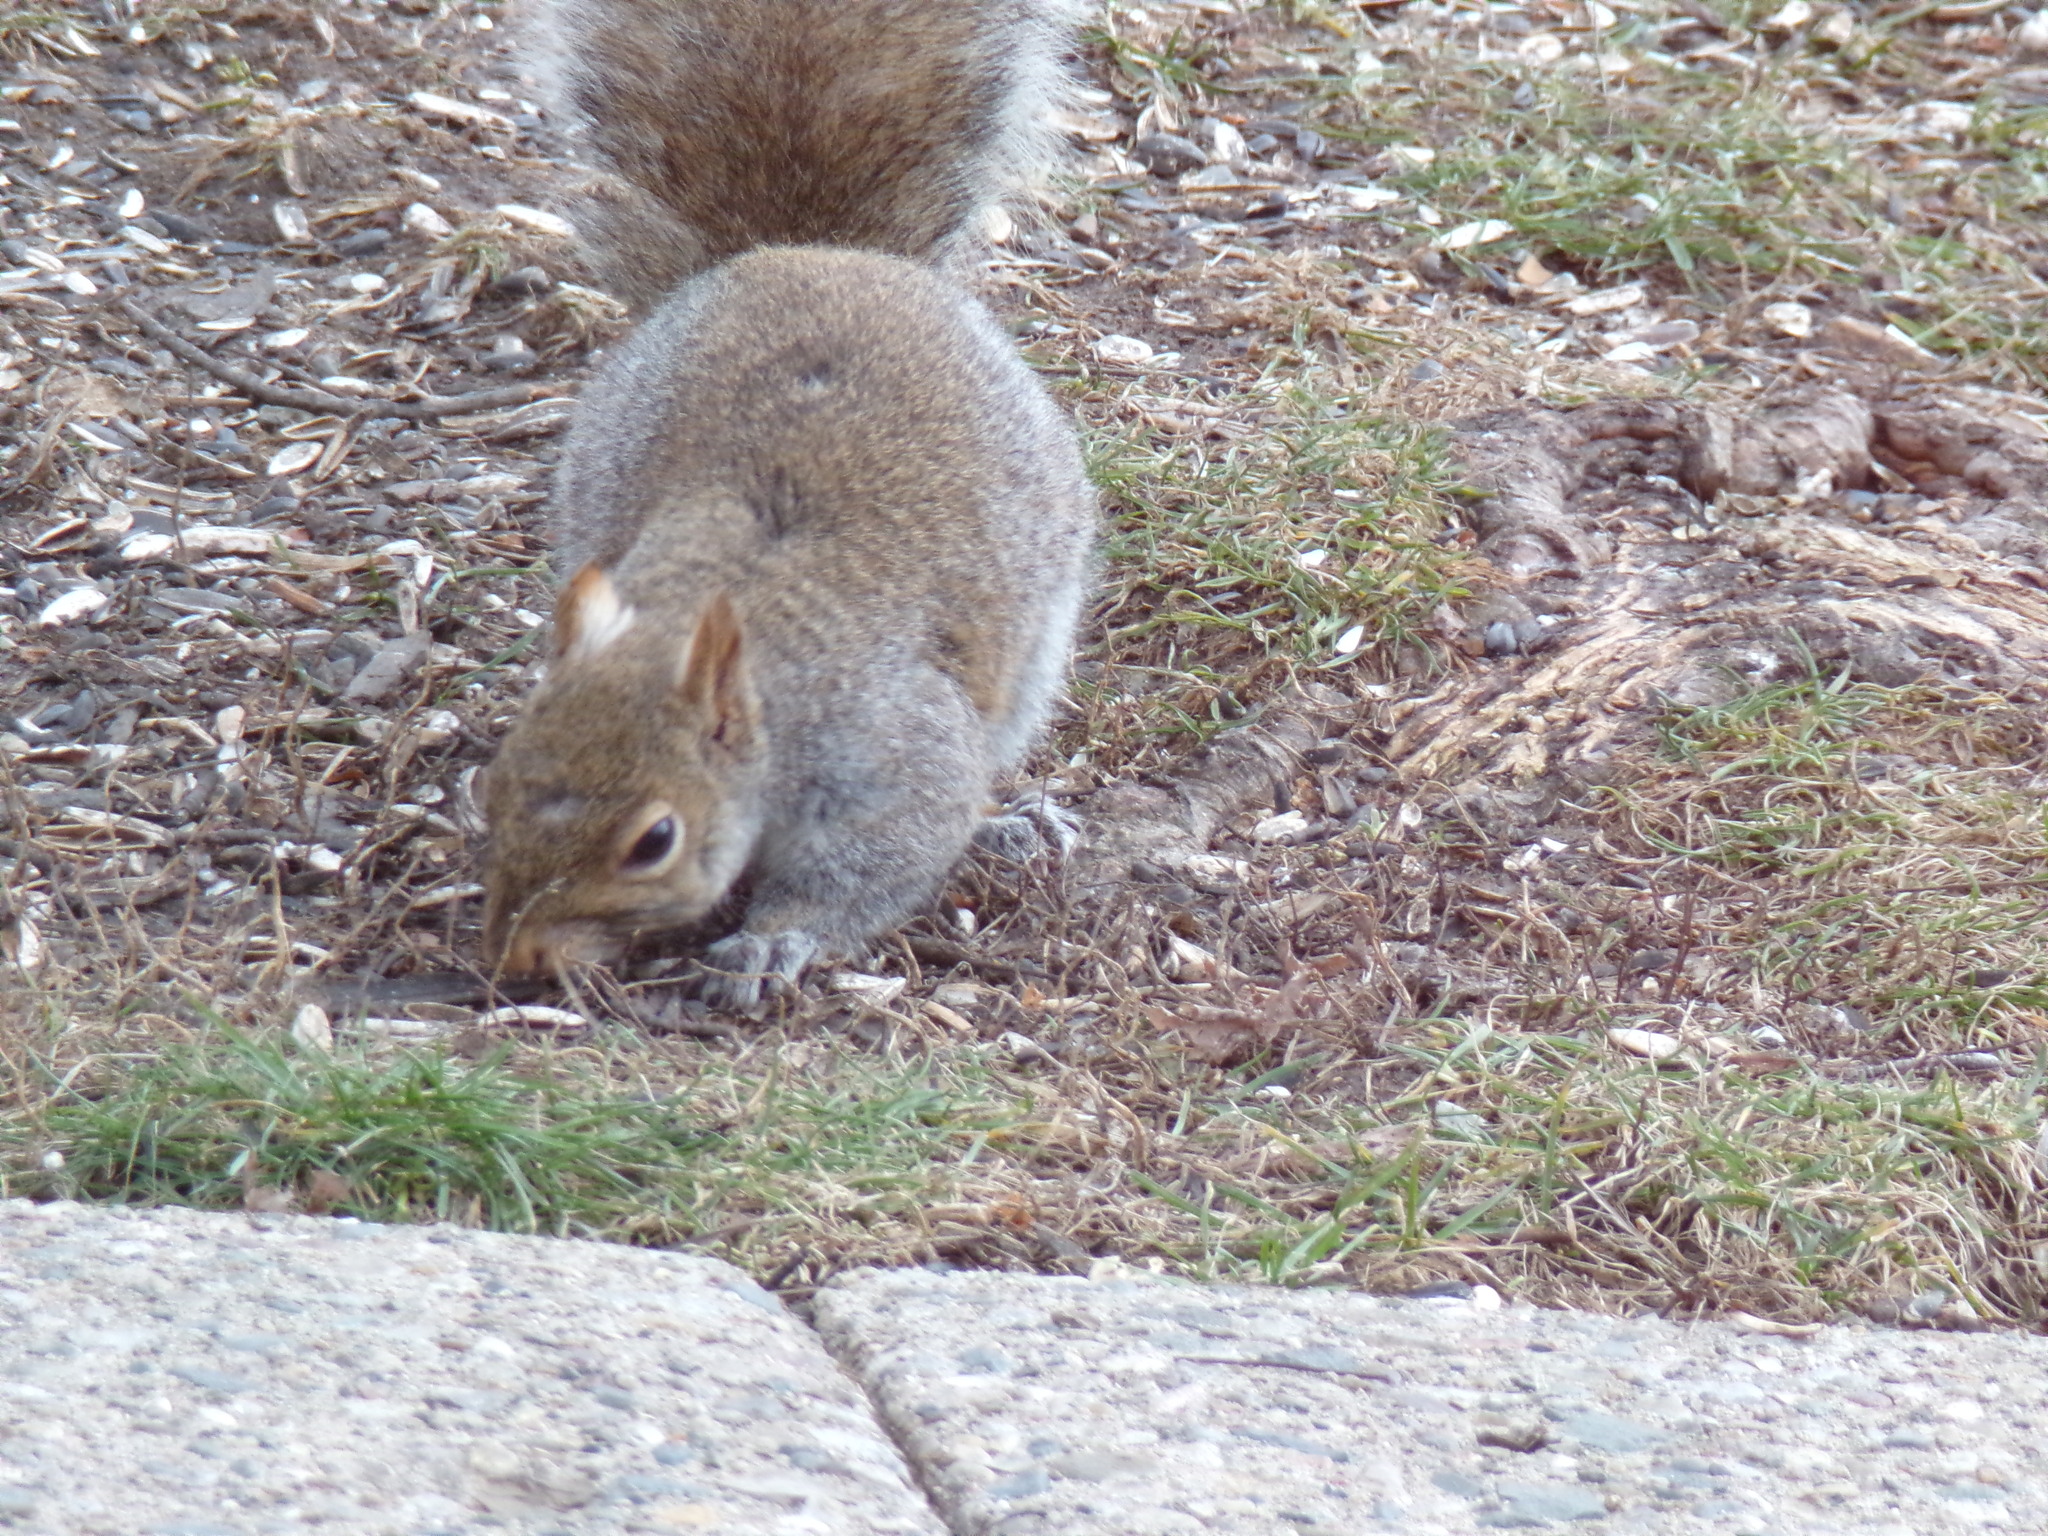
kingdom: Animalia
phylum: Chordata
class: Mammalia
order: Rodentia
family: Sciuridae
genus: Sciurus
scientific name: Sciurus carolinensis
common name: Eastern gray squirrel
